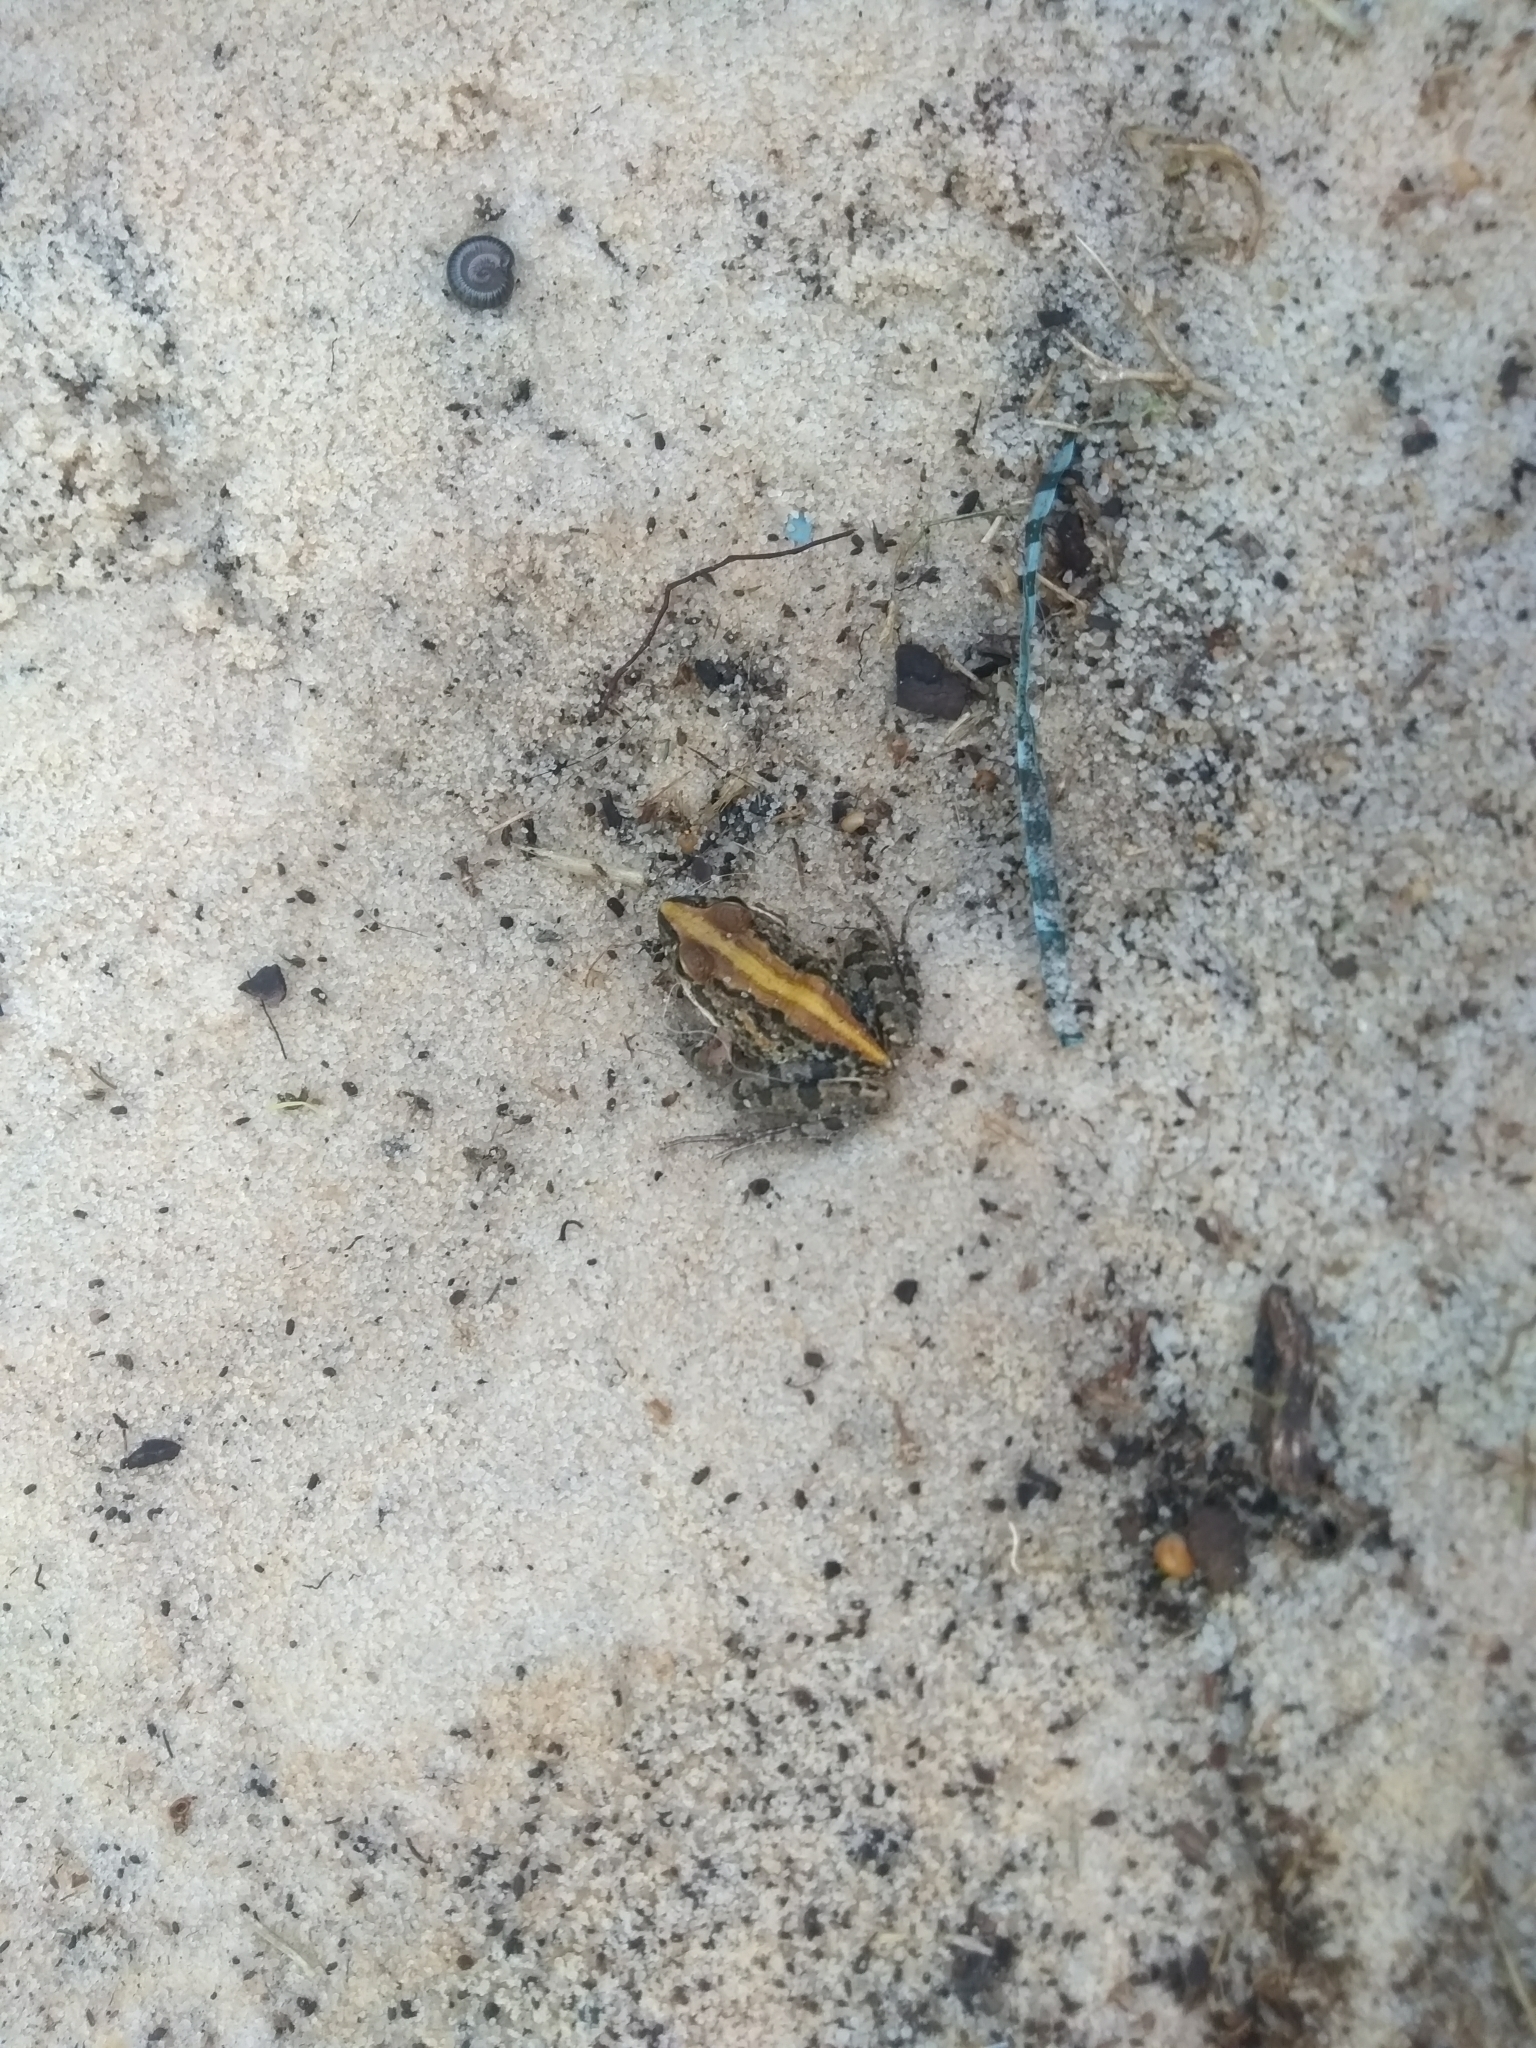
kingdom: Animalia
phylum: Chordata
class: Amphibia
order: Anura
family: Pyxicephalidae
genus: Strongylopus
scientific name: Strongylopus grayii
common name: Gray's stream frog
